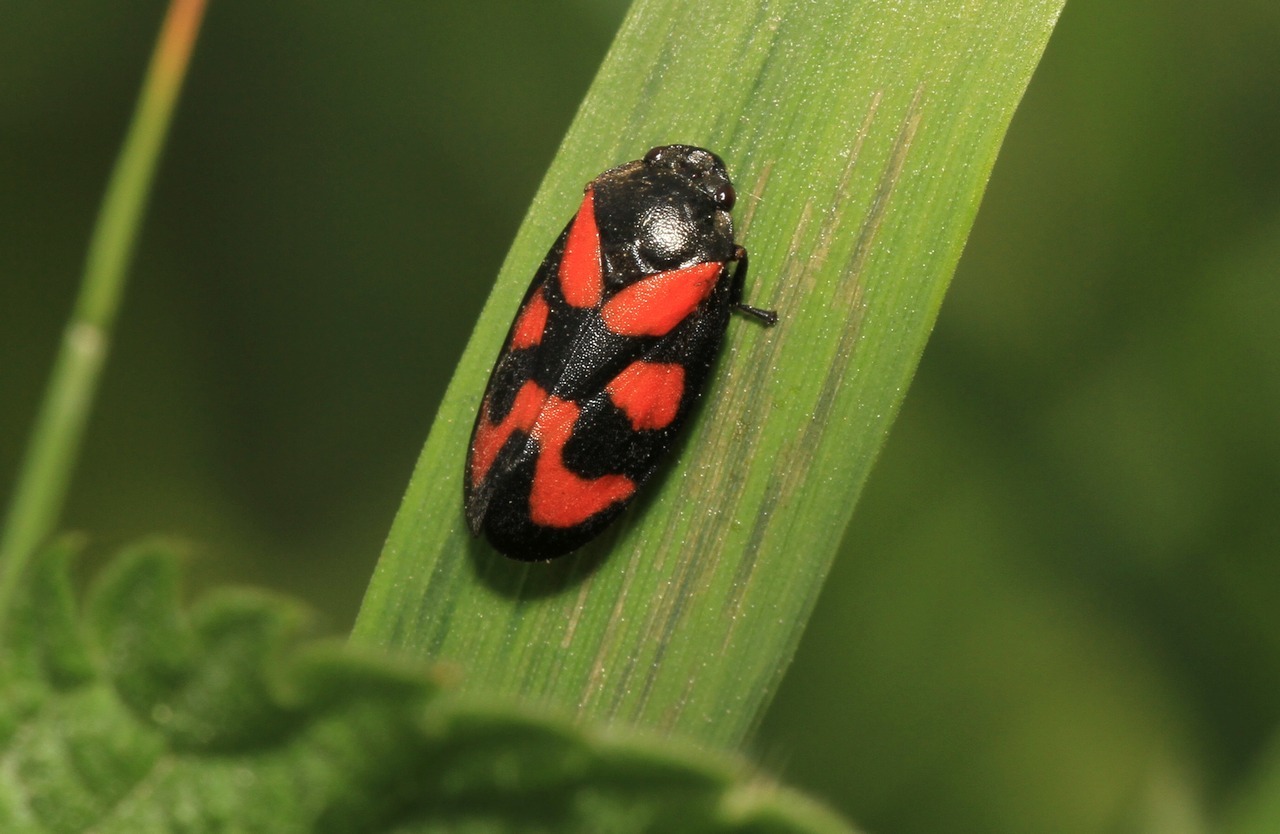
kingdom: Animalia
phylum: Arthropoda
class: Insecta
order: Hemiptera
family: Cercopidae
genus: Cercopis
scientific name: Cercopis vulnerata
